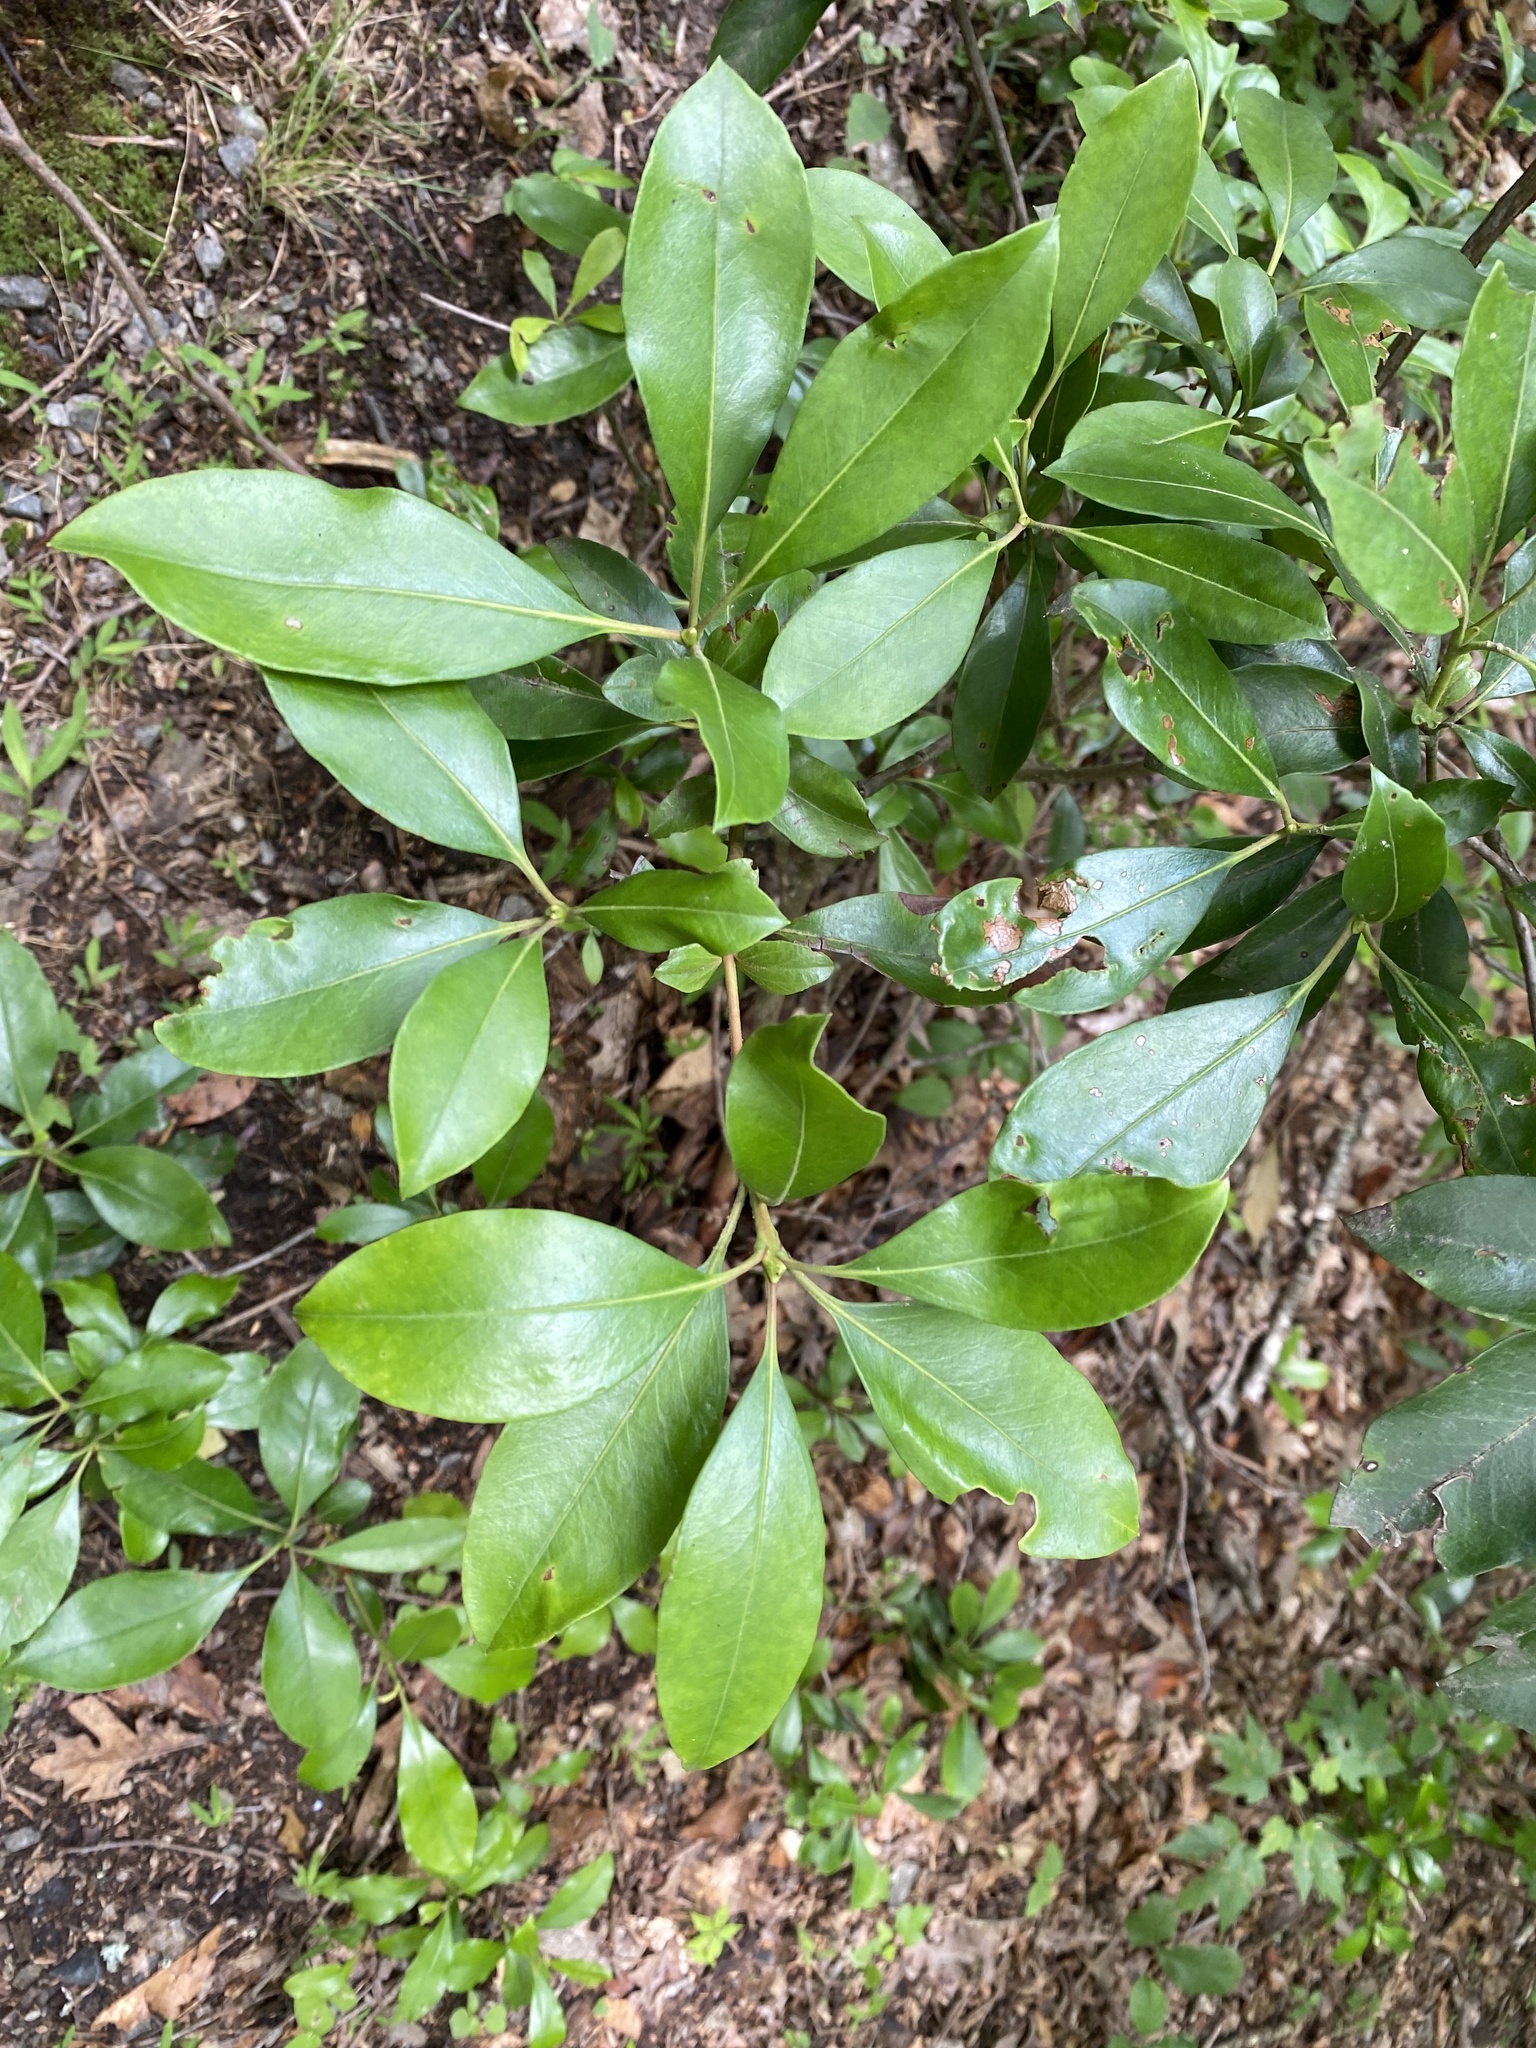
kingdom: Plantae
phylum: Tracheophyta
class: Magnoliopsida
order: Ericales
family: Ericaceae
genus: Kalmia
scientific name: Kalmia latifolia
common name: Mountain-laurel
